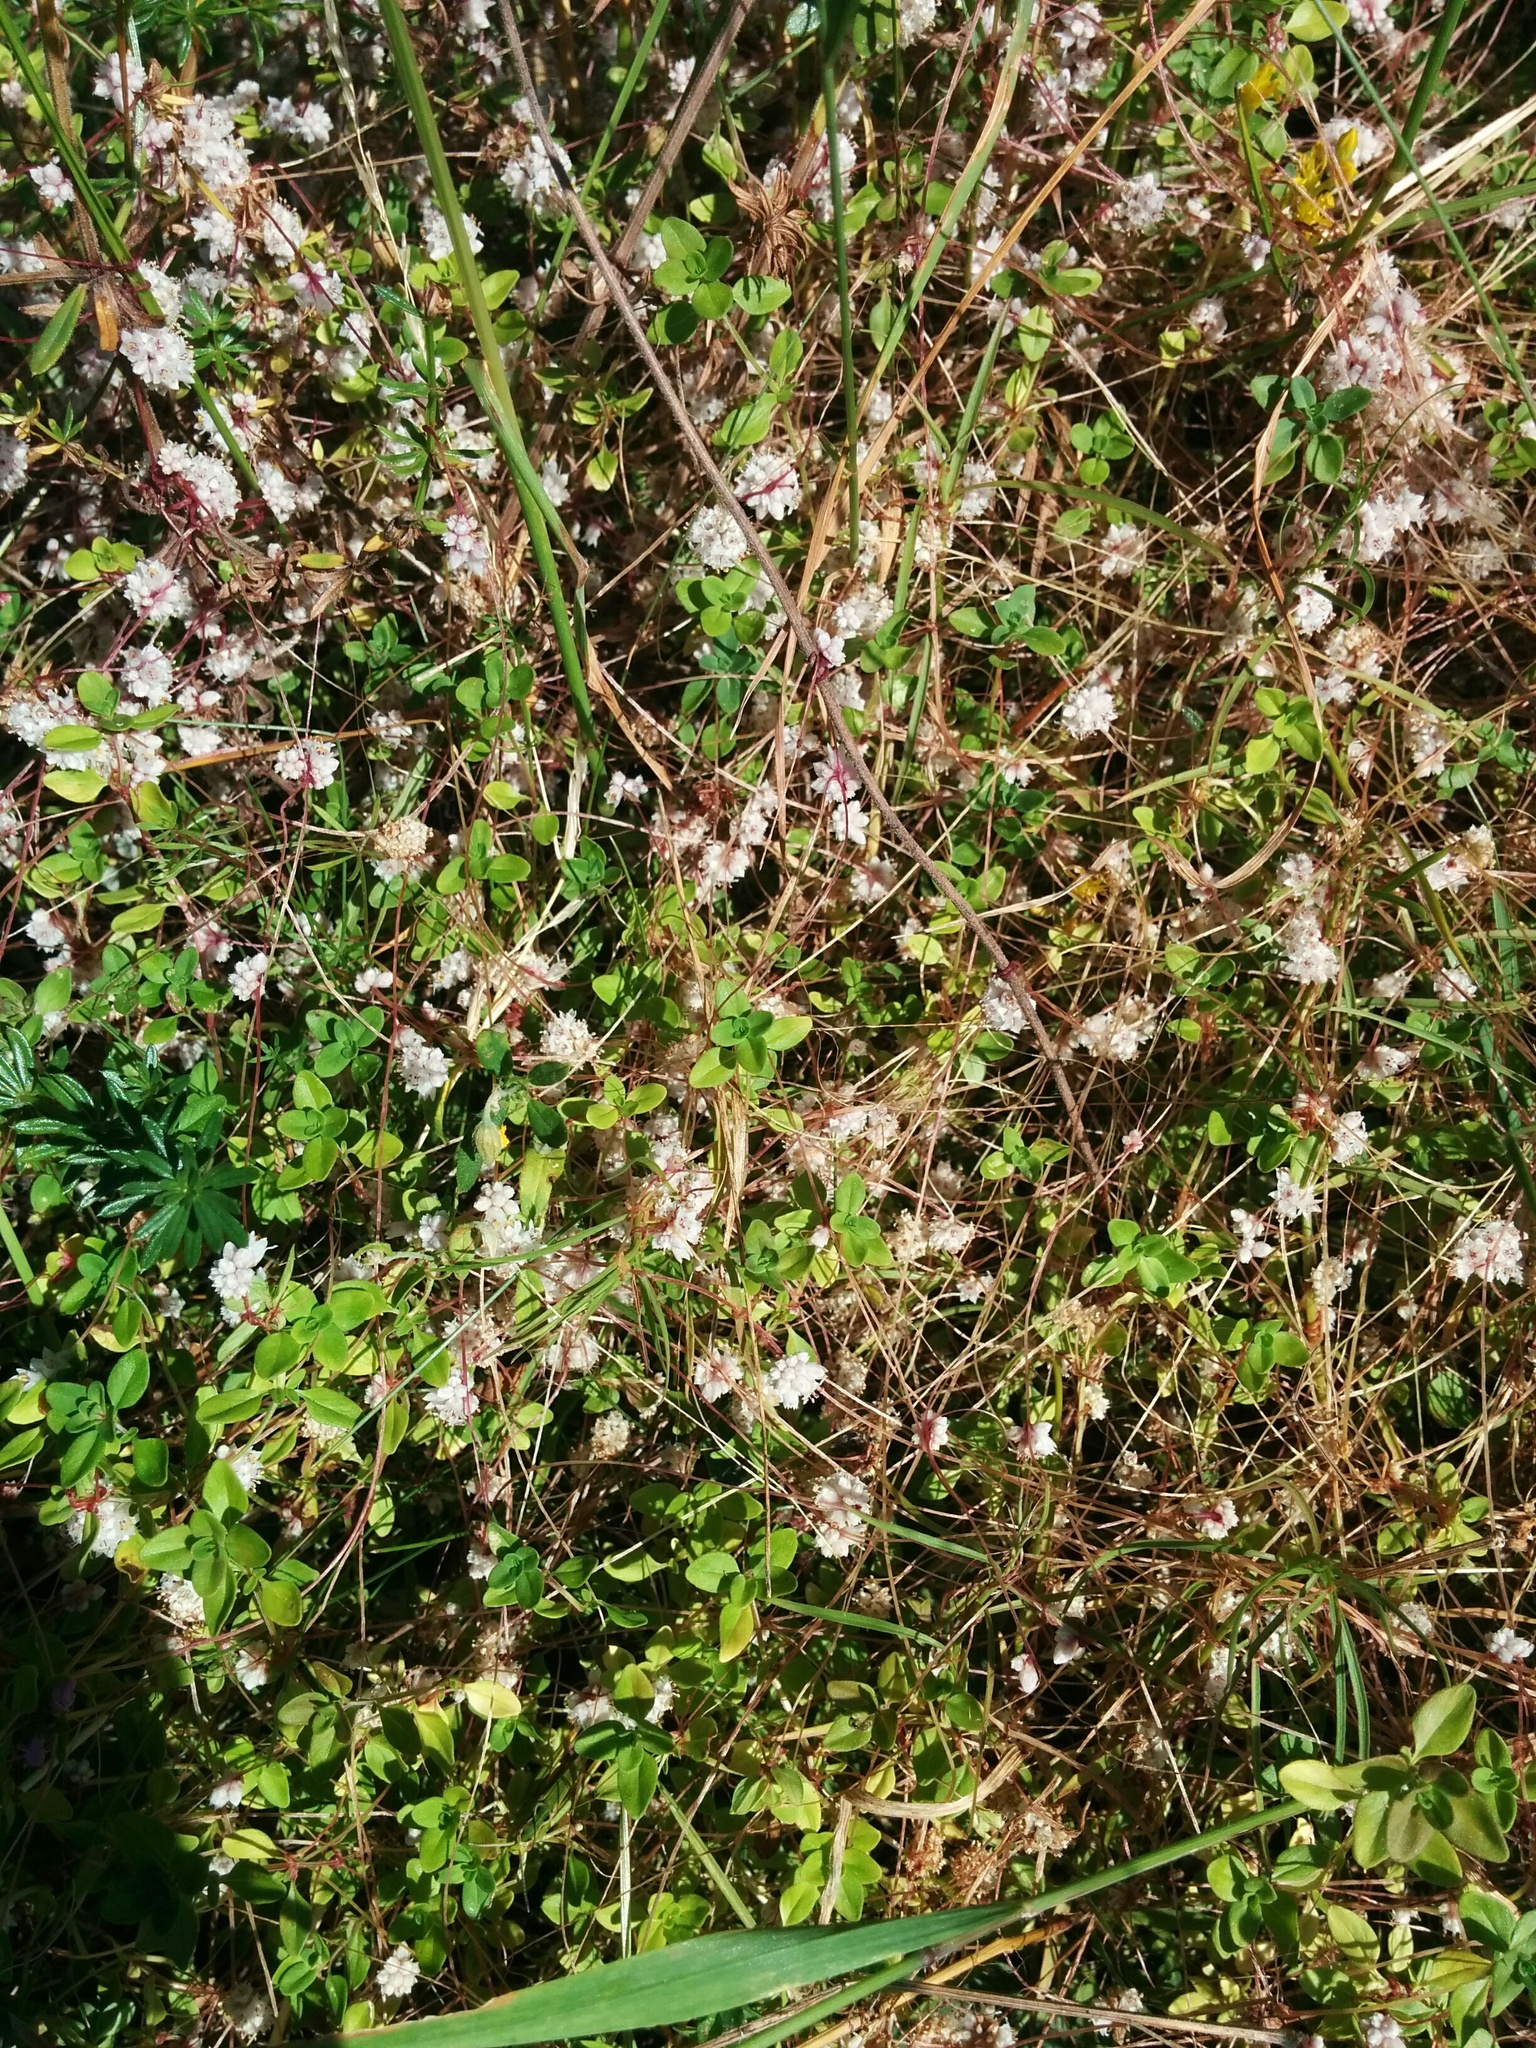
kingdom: Plantae
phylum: Tracheophyta
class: Magnoliopsida
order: Solanales
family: Convolvulaceae
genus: Cuscuta
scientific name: Cuscuta epithymum
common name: Clover dodder
